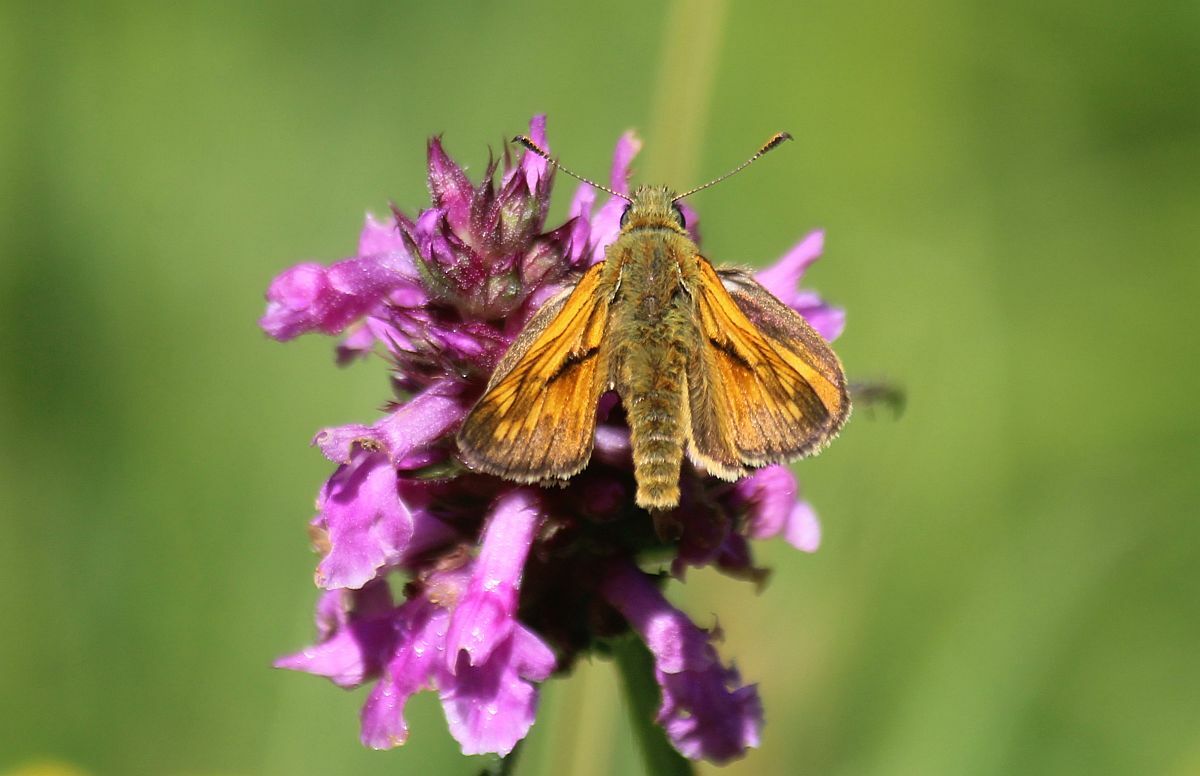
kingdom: Animalia
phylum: Arthropoda
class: Insecta
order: Lepidoptera
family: Hesperiidae
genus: Ochlodes
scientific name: Ochlodes venata
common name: Large skipper
